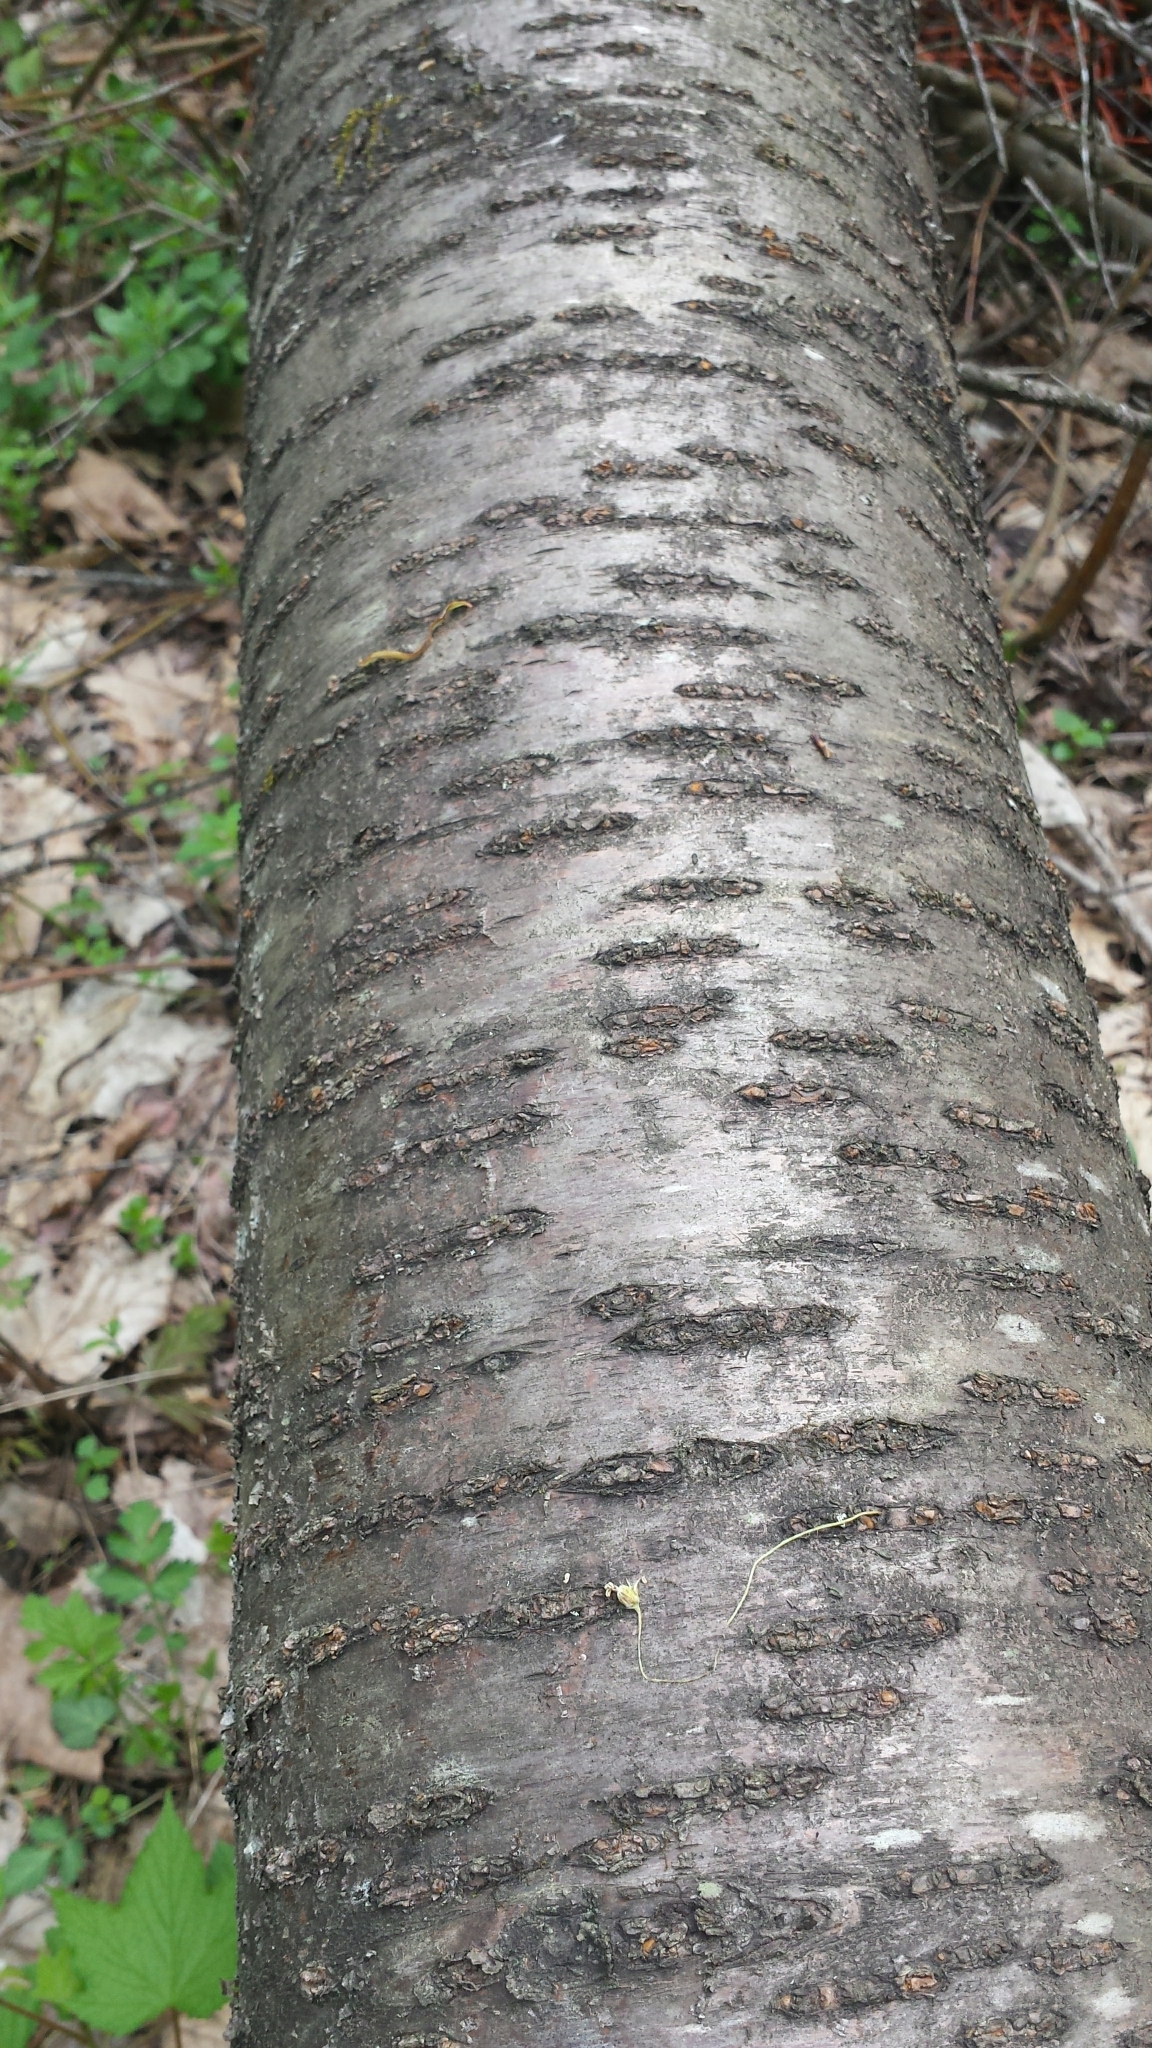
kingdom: Plantae
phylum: Tracheophyta
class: Magnoliopsida
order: Rosales
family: Rosaceae
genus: Prunus
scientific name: Prunus pensylvanica
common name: Pin cherry
